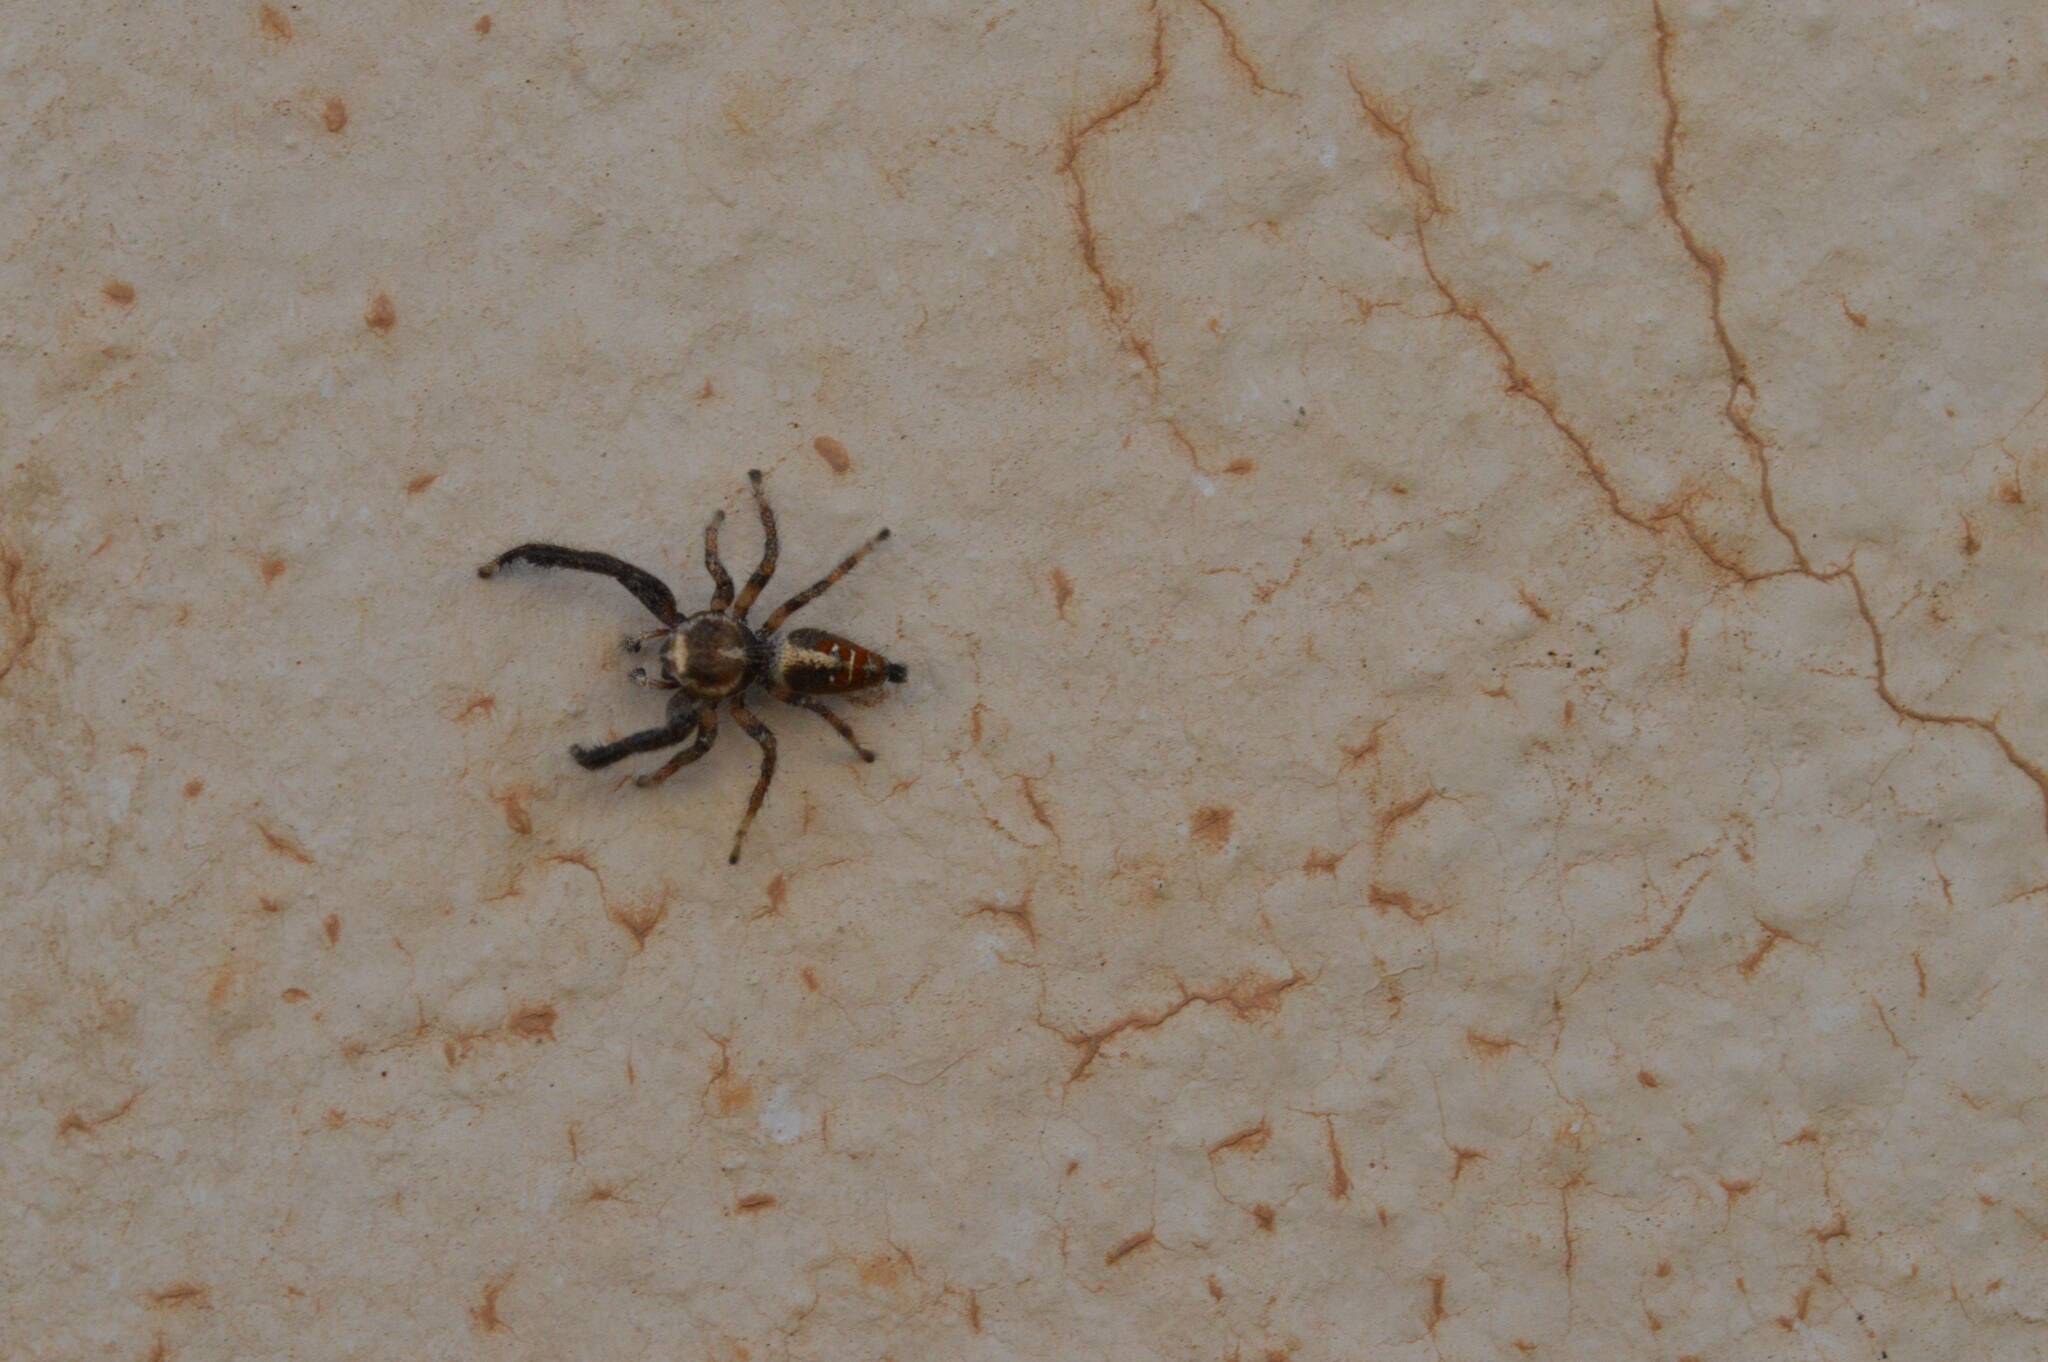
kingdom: Animalia
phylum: Arthropoda
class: Arachnida
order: Araneae
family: Salticidae
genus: Thyene
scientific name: Thyene imperialis
